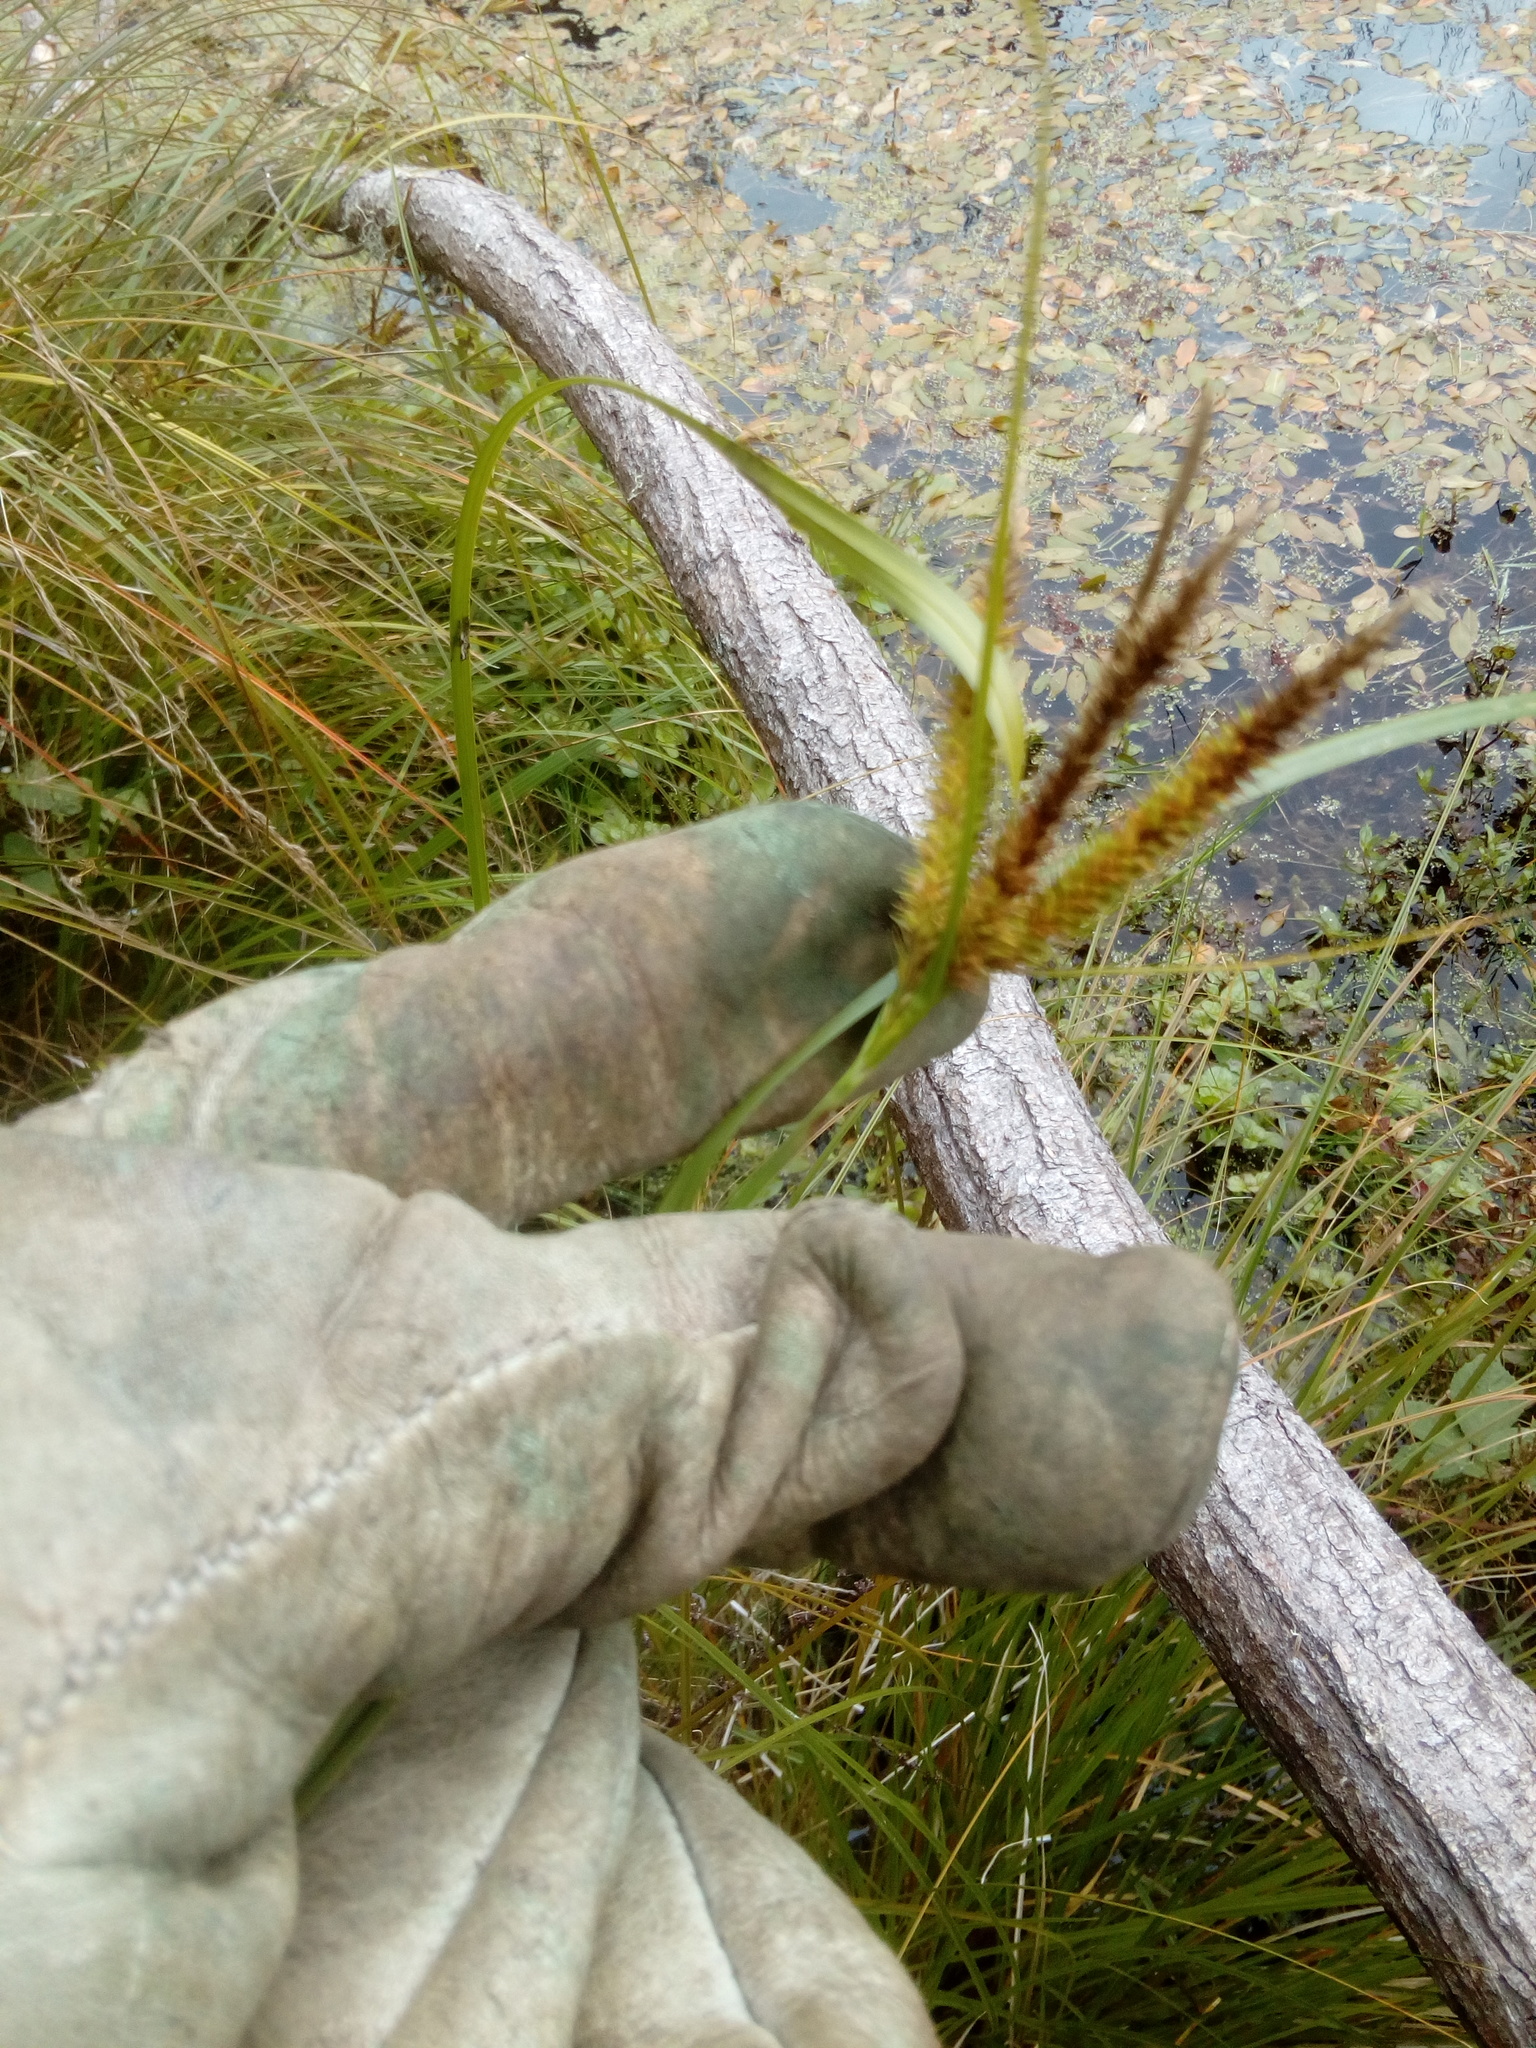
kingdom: Plantae
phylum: Tracheophyta
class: Liliopsida
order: Poales
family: Cyperaceae
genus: Carex
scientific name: Carex maorica
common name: Maori sedge
